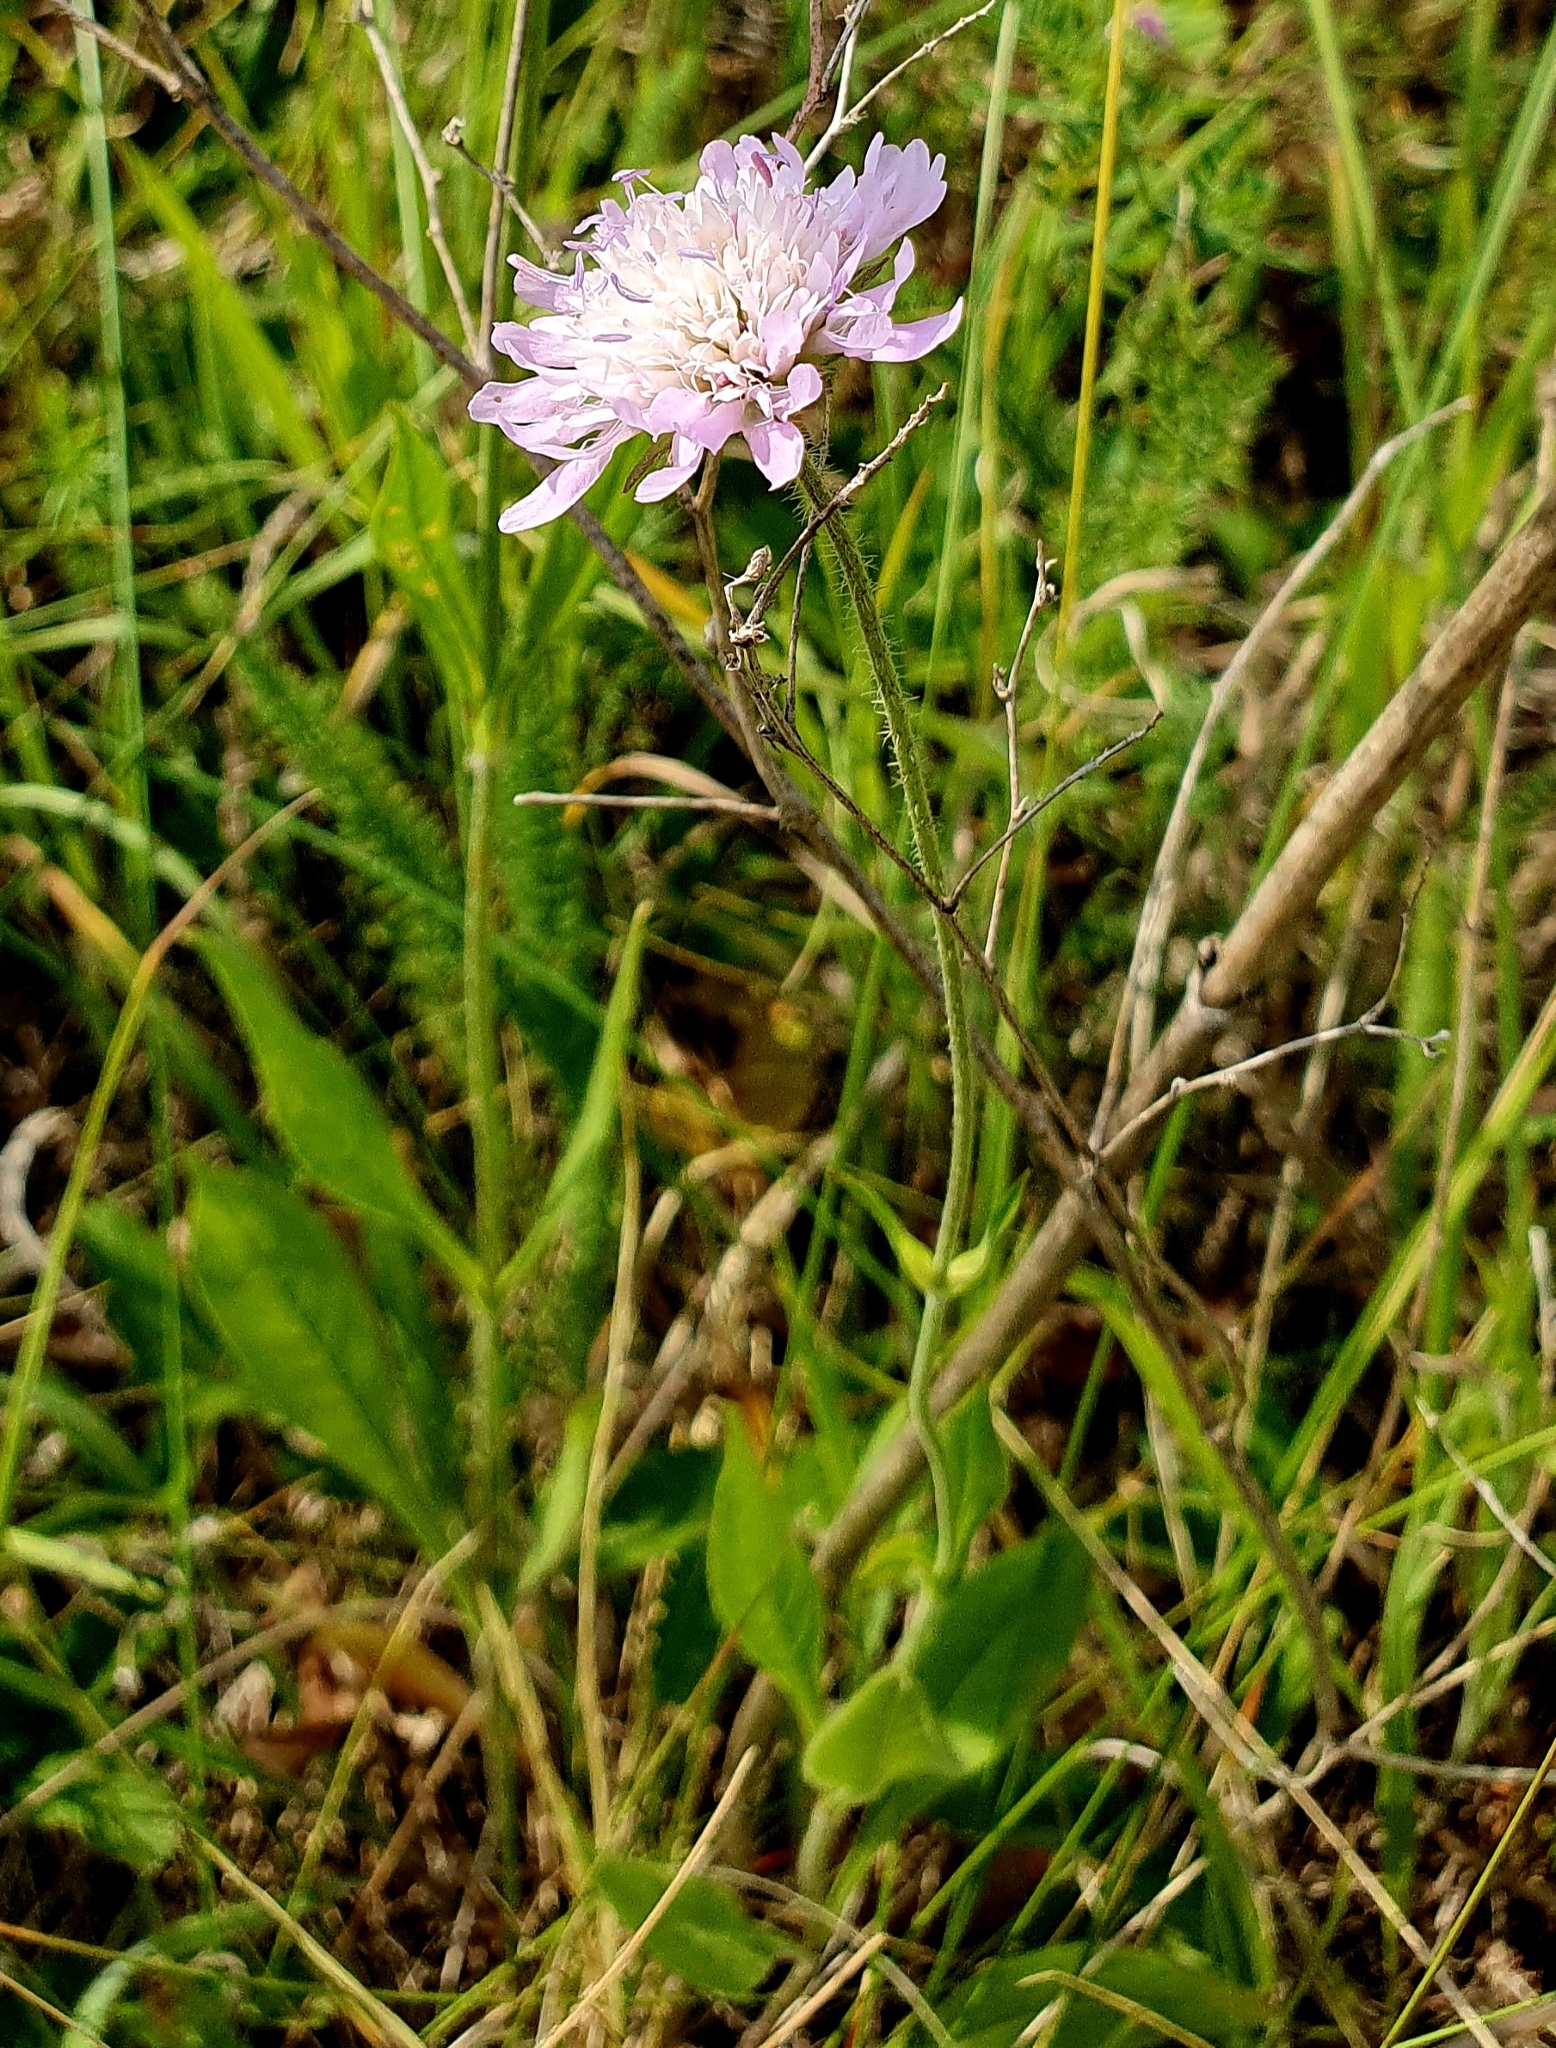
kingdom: Plantae
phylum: Tracheophyta
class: Magnoliopsida
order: Dipsacales
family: Caprifoliaceae
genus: Knautia
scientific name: Knautia arvensis
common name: Field scabiosa
